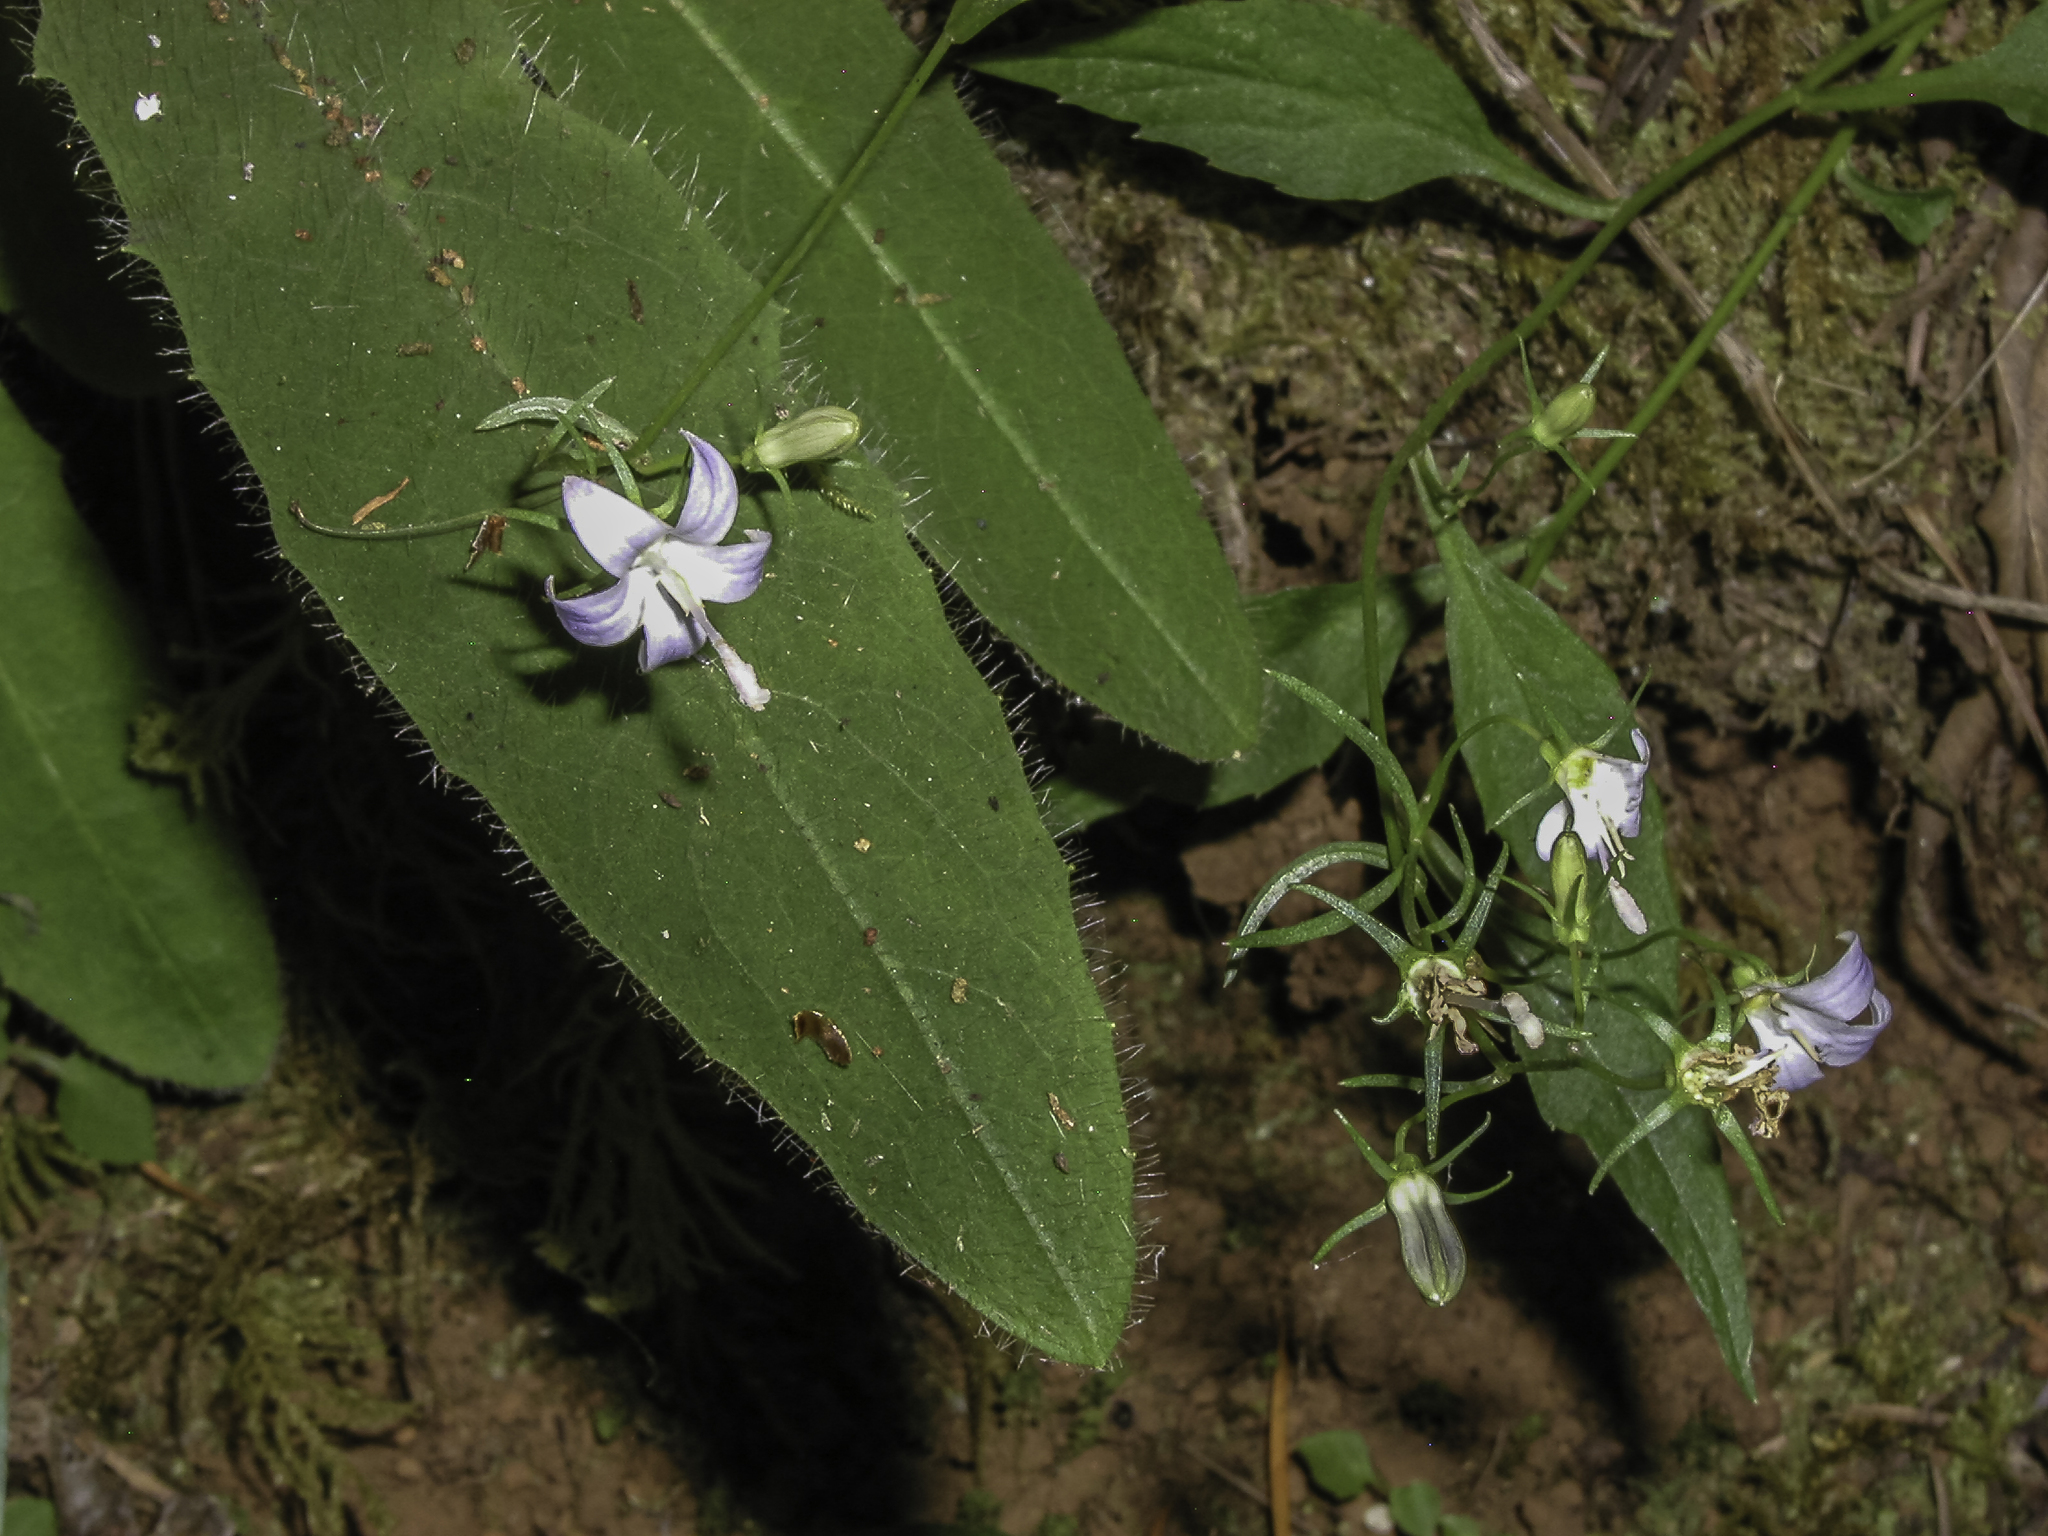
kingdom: Plantae
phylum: Tracheophyta
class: Magnoliopsida
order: Asterales
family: Campanulaceae
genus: Campanula
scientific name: Campanula scouleri
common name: Scouler's harebell
